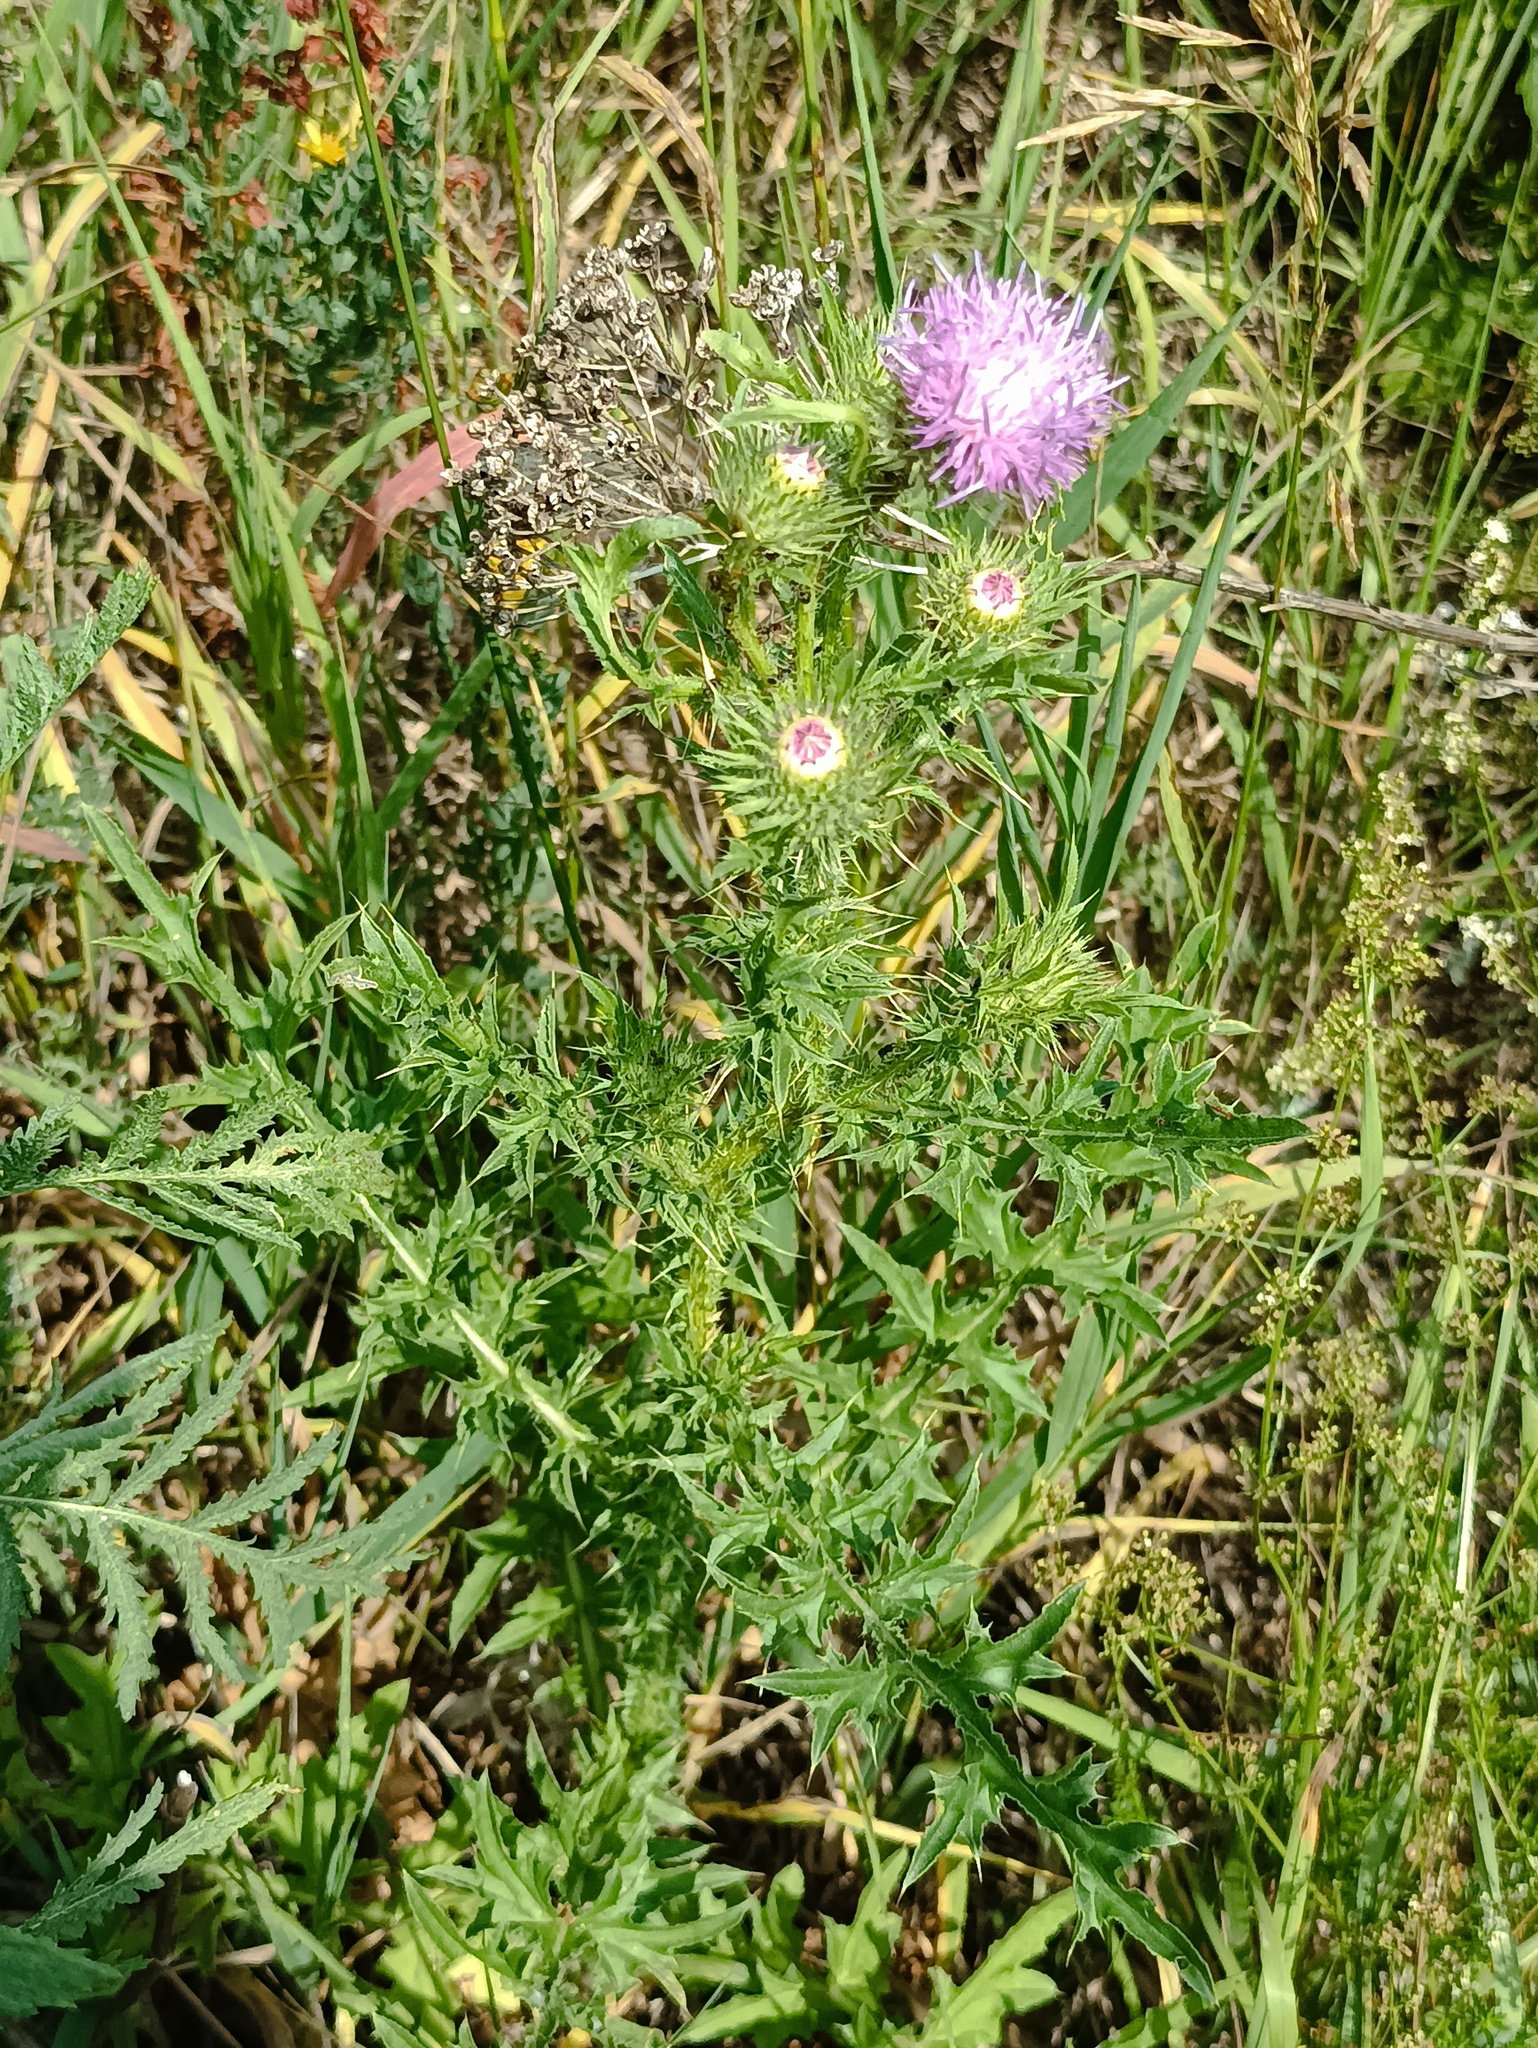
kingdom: Plantae
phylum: Tracheophyta
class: Magnoliopsida
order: Asterales
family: Asteraceae
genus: Carduus
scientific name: Carduus acanthoides
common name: Plumeless thistle
